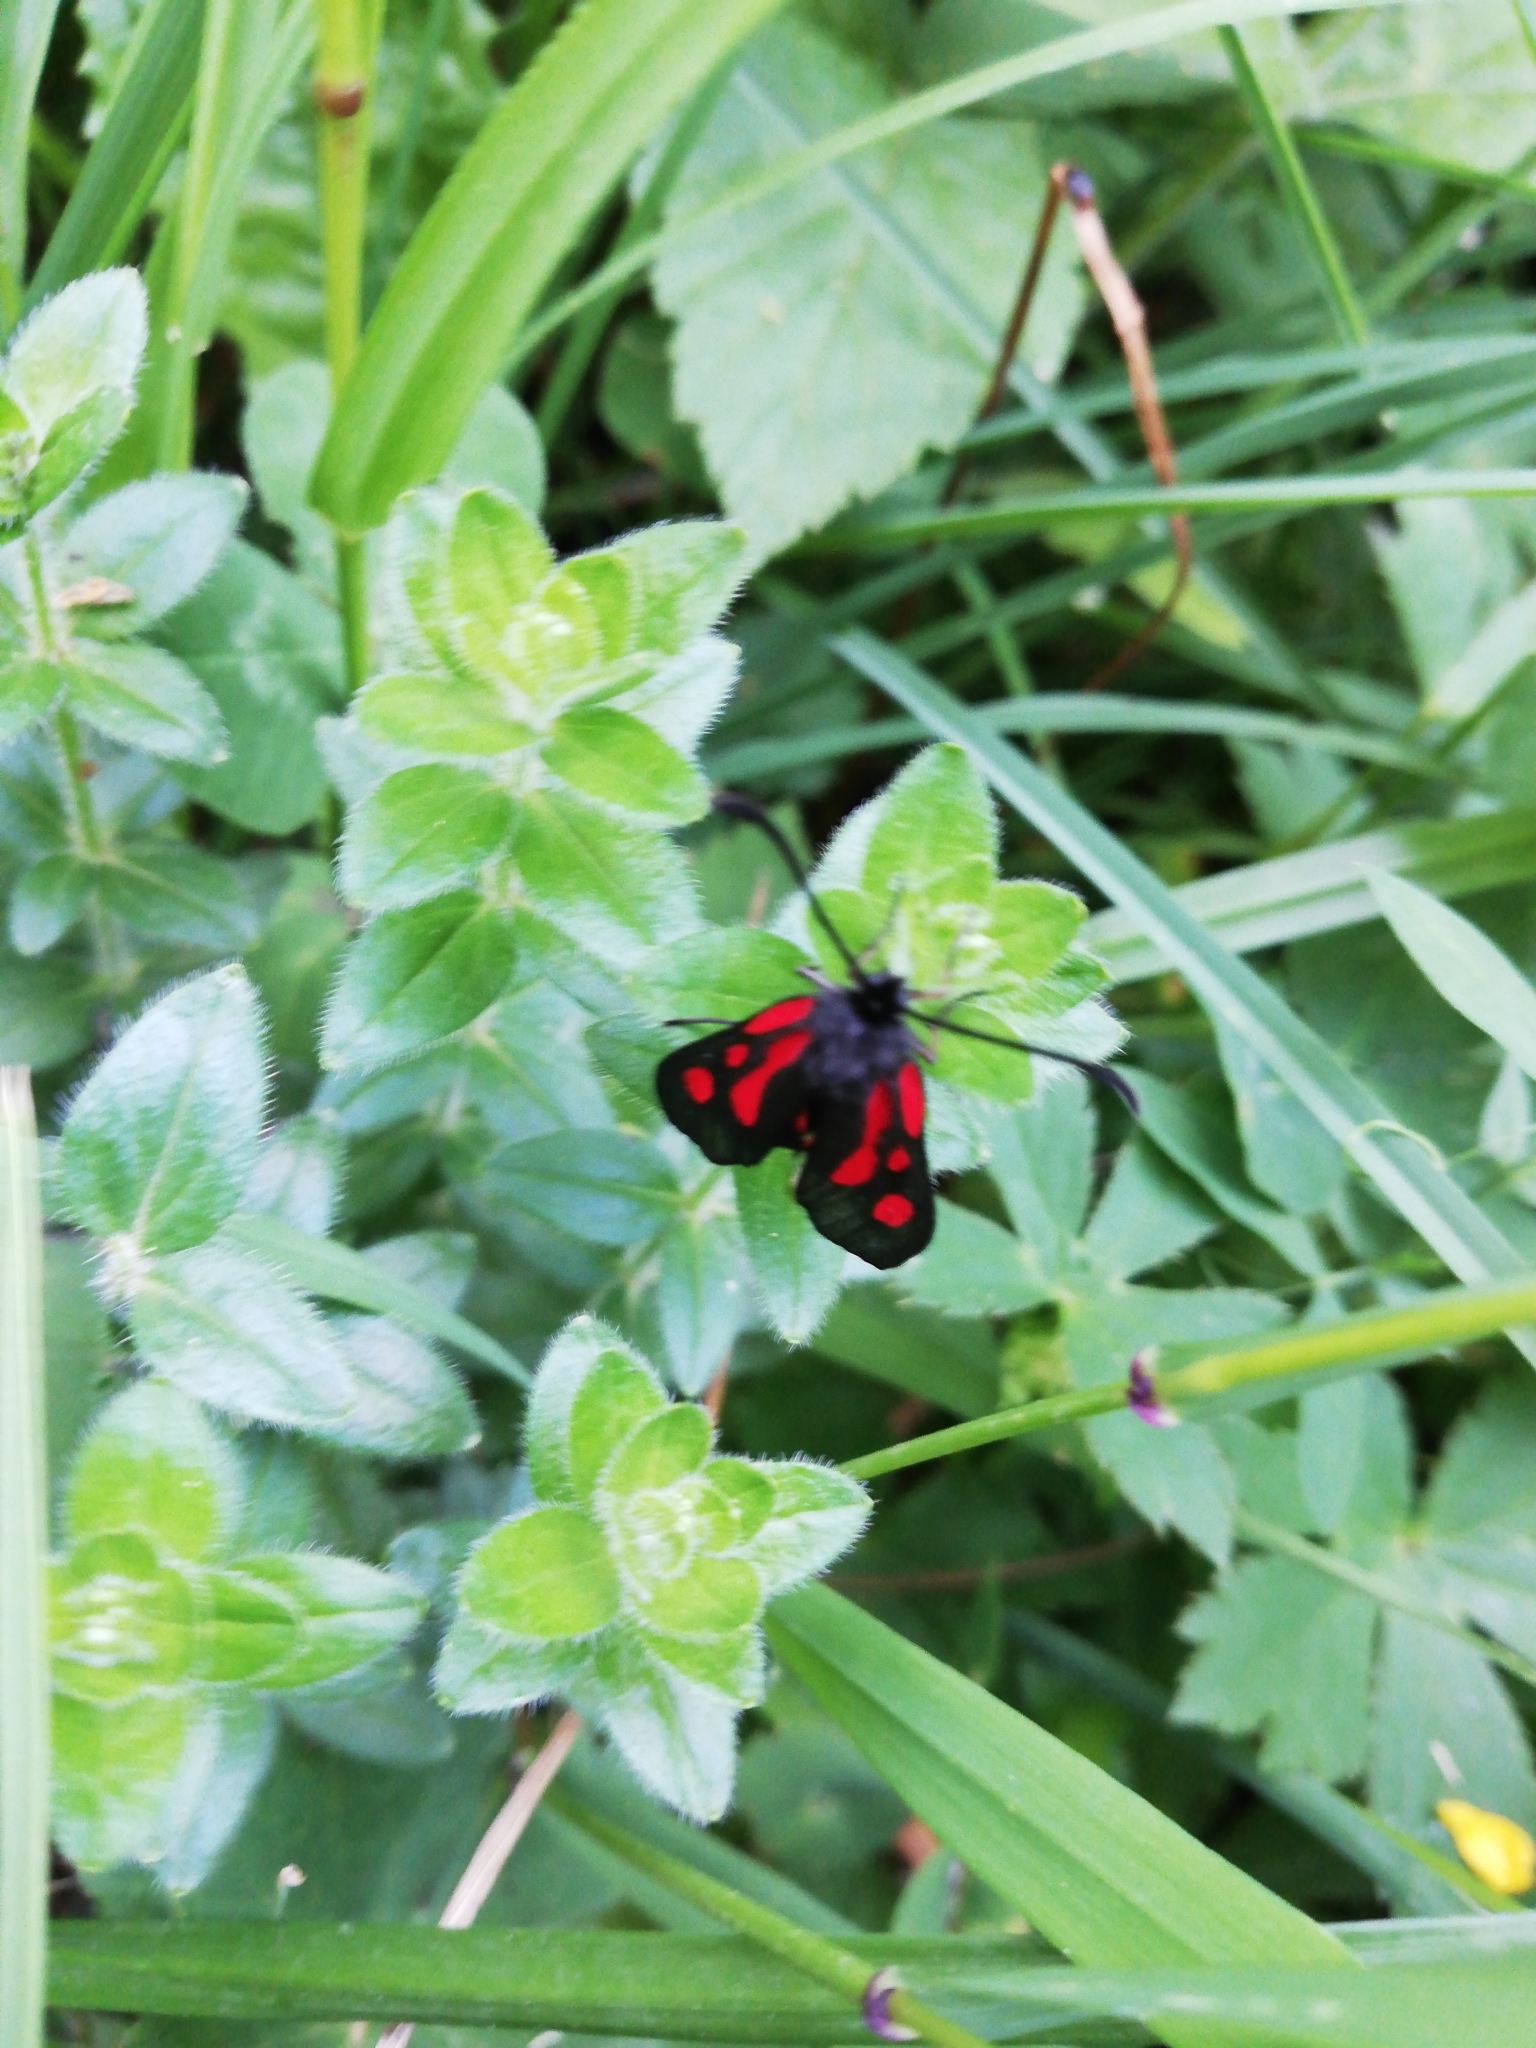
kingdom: Animalia
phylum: Arthropoda
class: Insecta
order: Lepidoptera
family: Zygaenidae
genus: Zygaena
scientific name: Zygaena romeo
